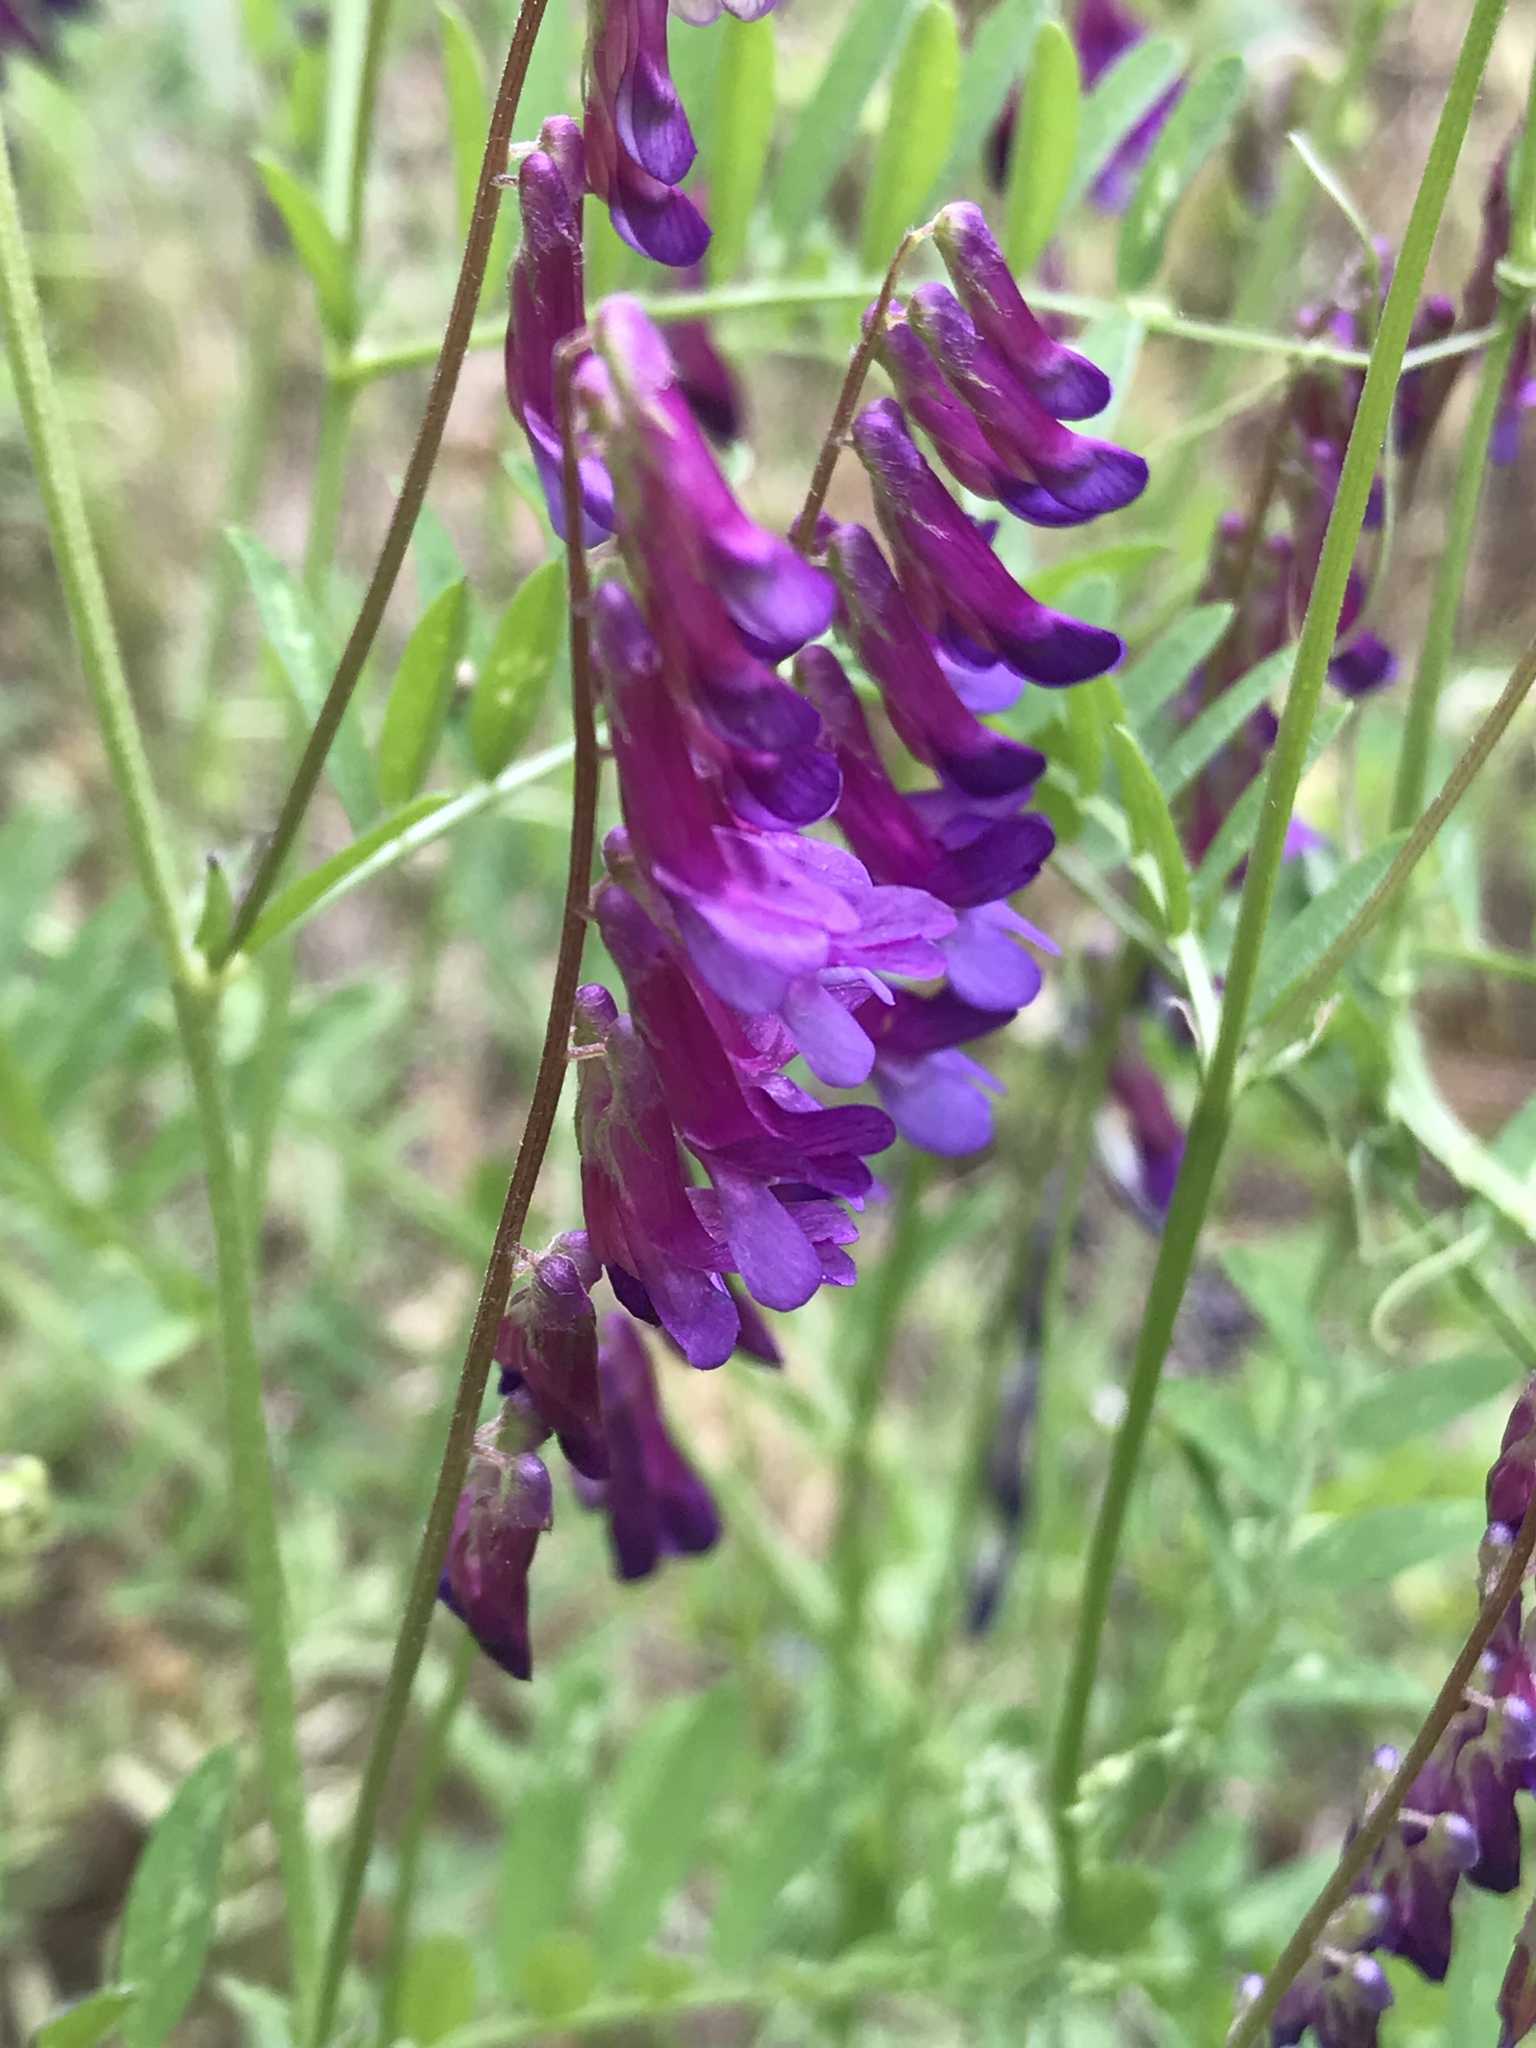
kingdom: Plantae
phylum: Tracheophyta
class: Magnoliopsida
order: Fabales
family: Fabaceae
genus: Vicia
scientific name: Vicia villosa
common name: Fodder vetch
